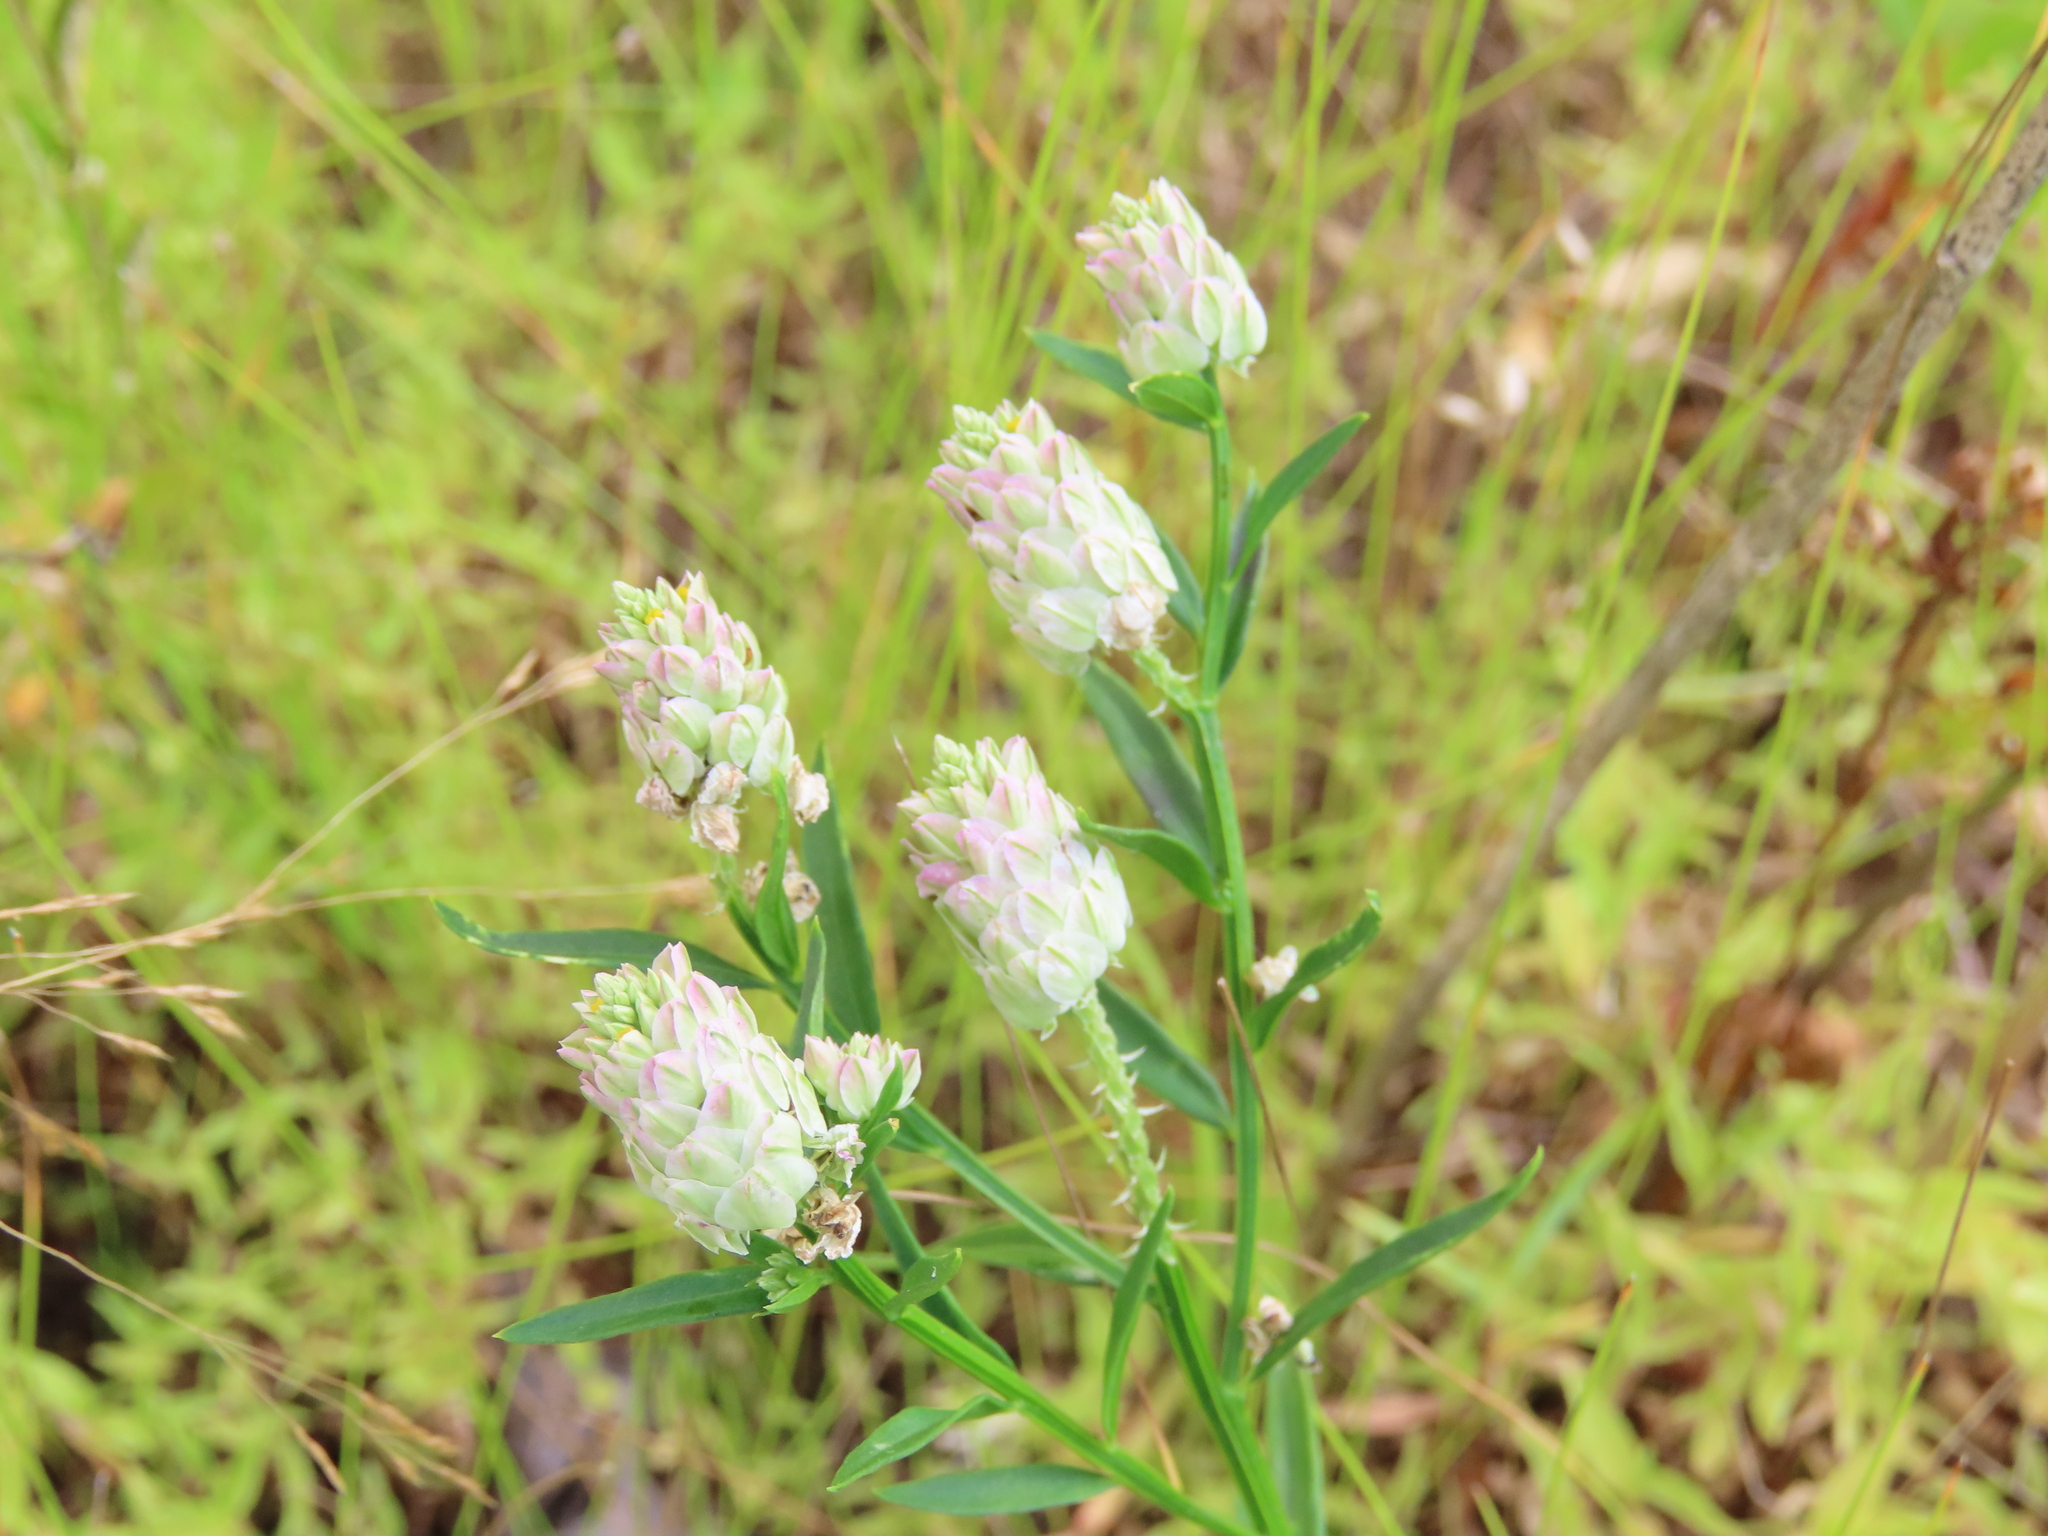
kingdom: Plantae
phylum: Tracheophyta
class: Magnoliopsida
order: Fabales
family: Polygalaceae
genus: Polygala
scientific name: Polygala sanguinea
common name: Blood milkwort
